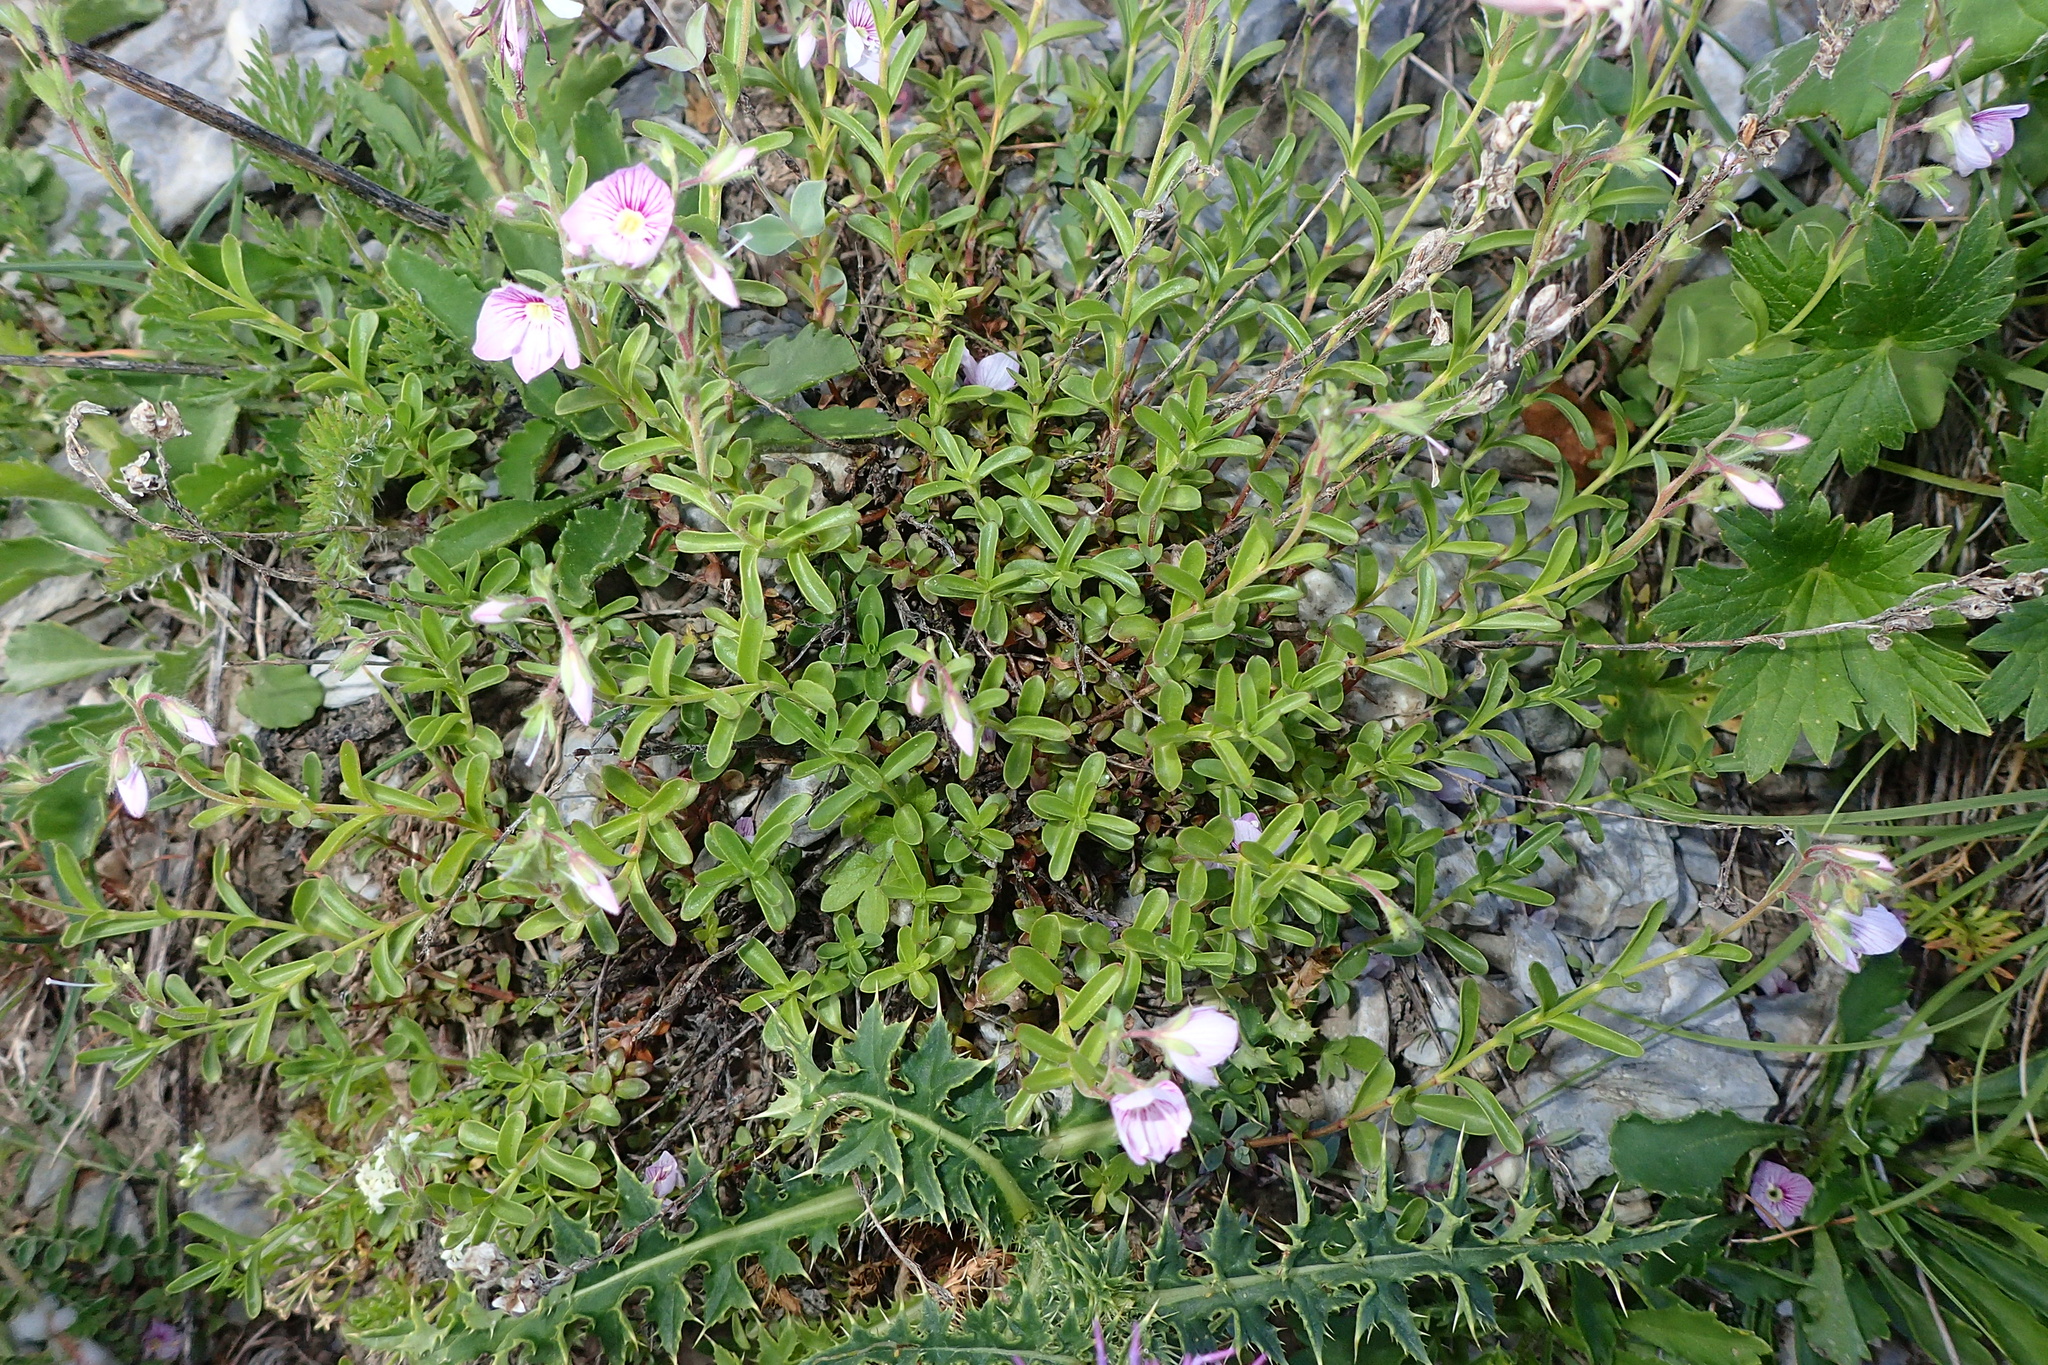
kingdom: Plantae
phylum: Tracheophyta
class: Magnoliopsida
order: Lamiales
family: Plantaginaceae
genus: Veronica
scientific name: Veronica fruticulosa
